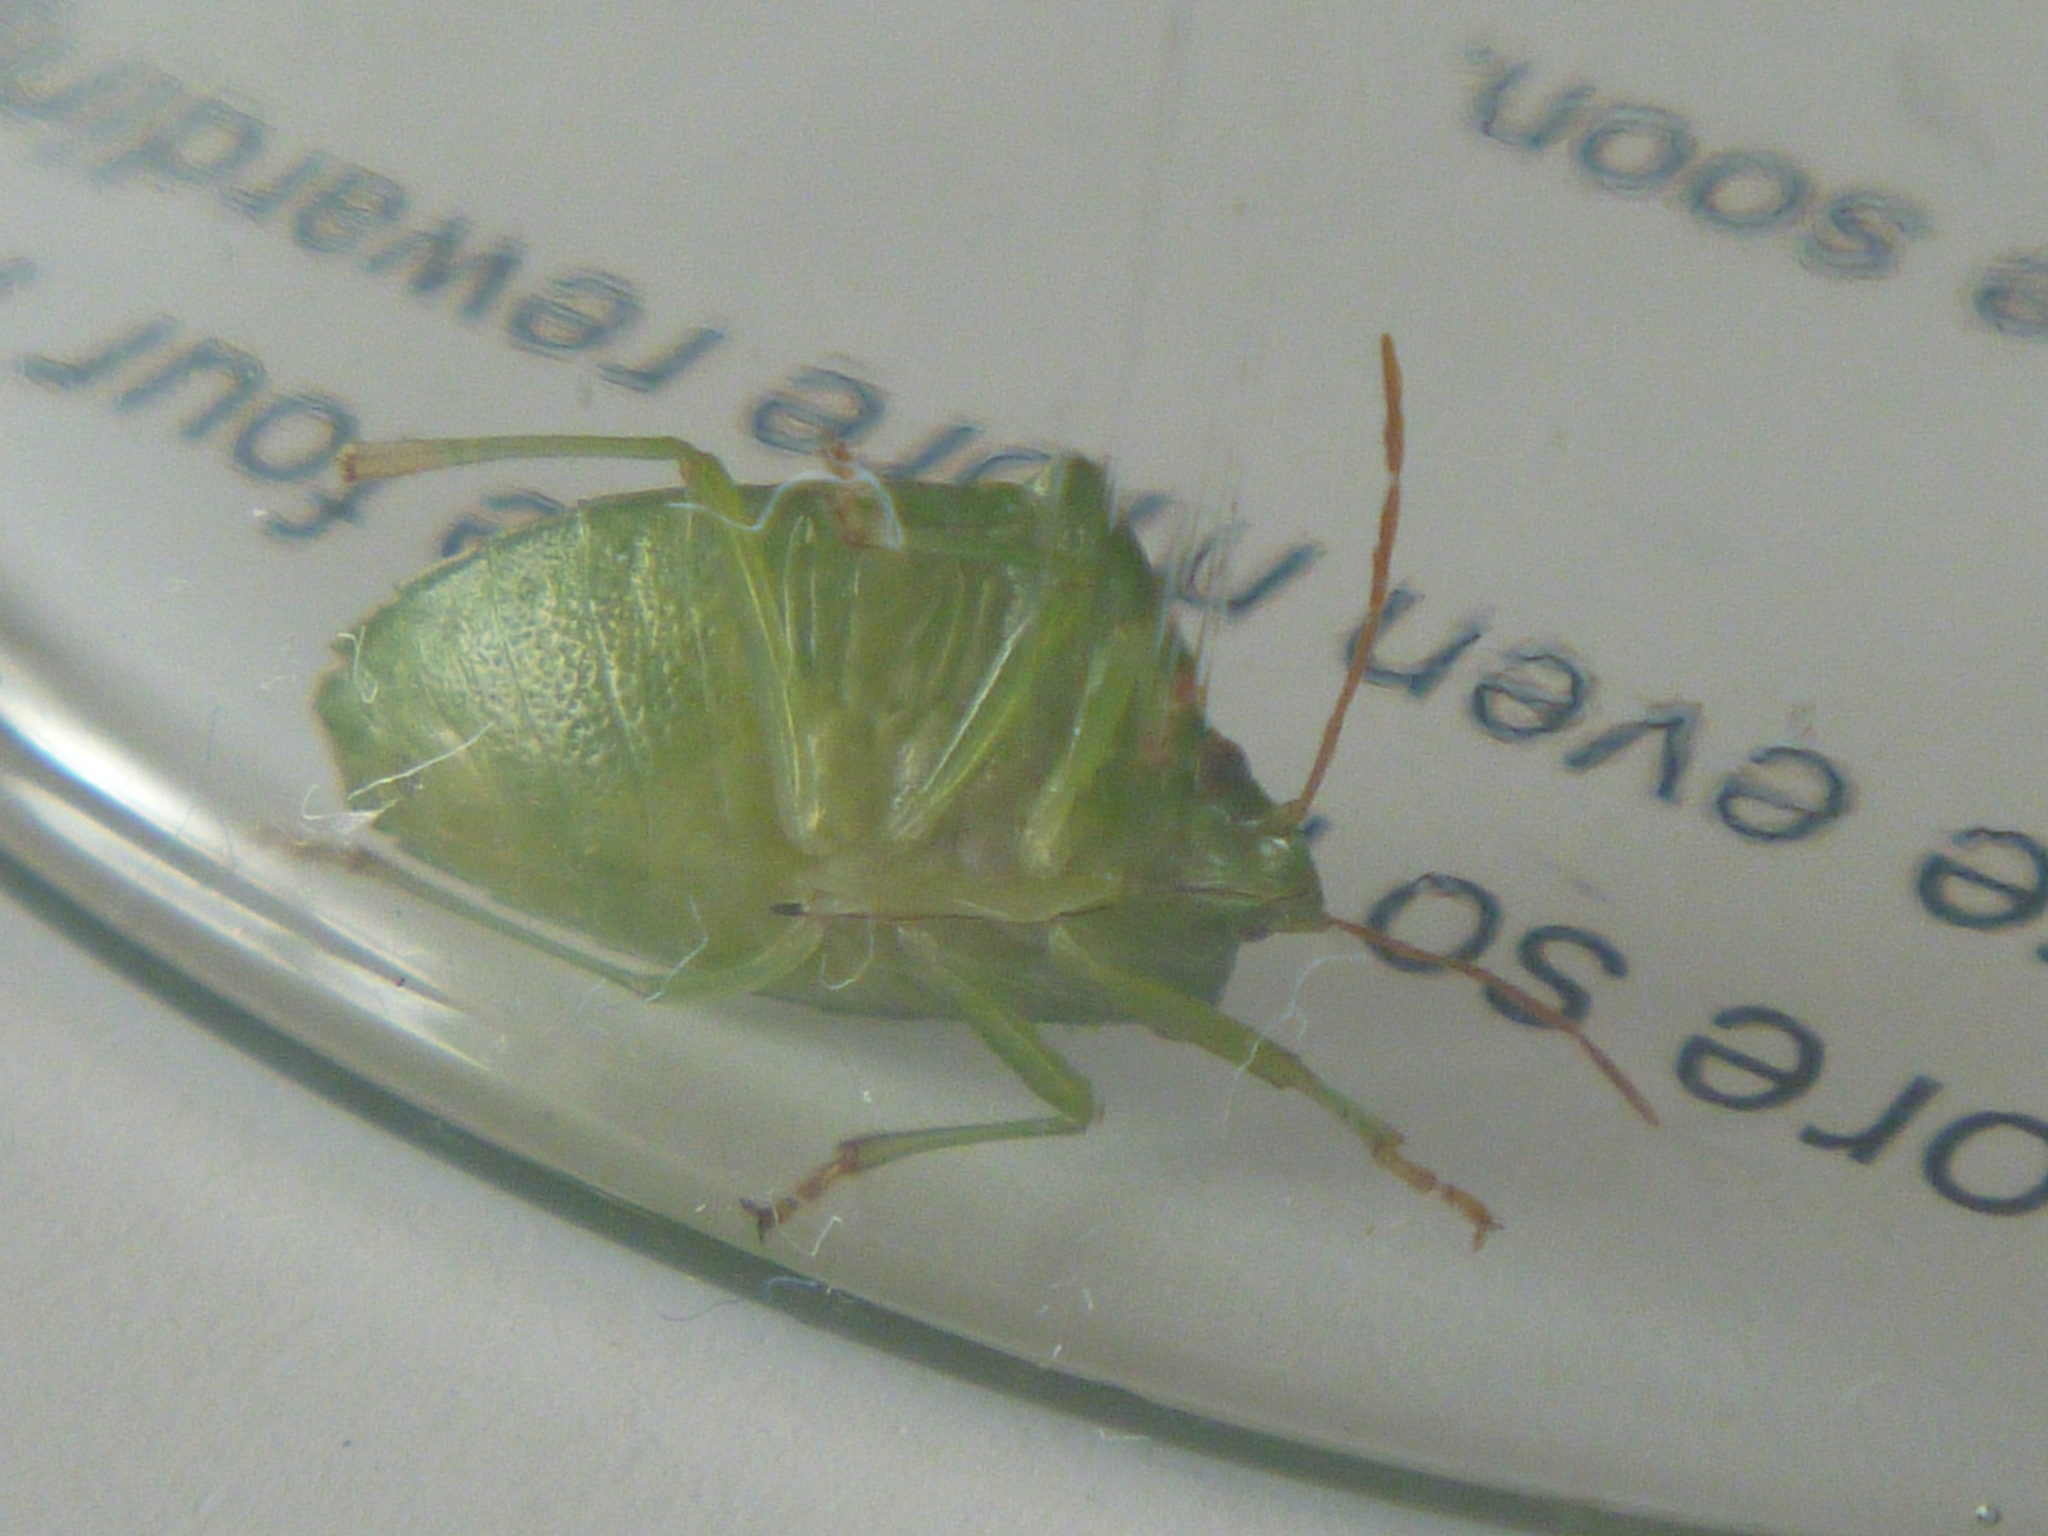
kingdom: Animalia
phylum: Arthropoda
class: Insecta
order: Hemiptera
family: Pentatomidae
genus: Cuspicona
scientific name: Cuspicona simplex
